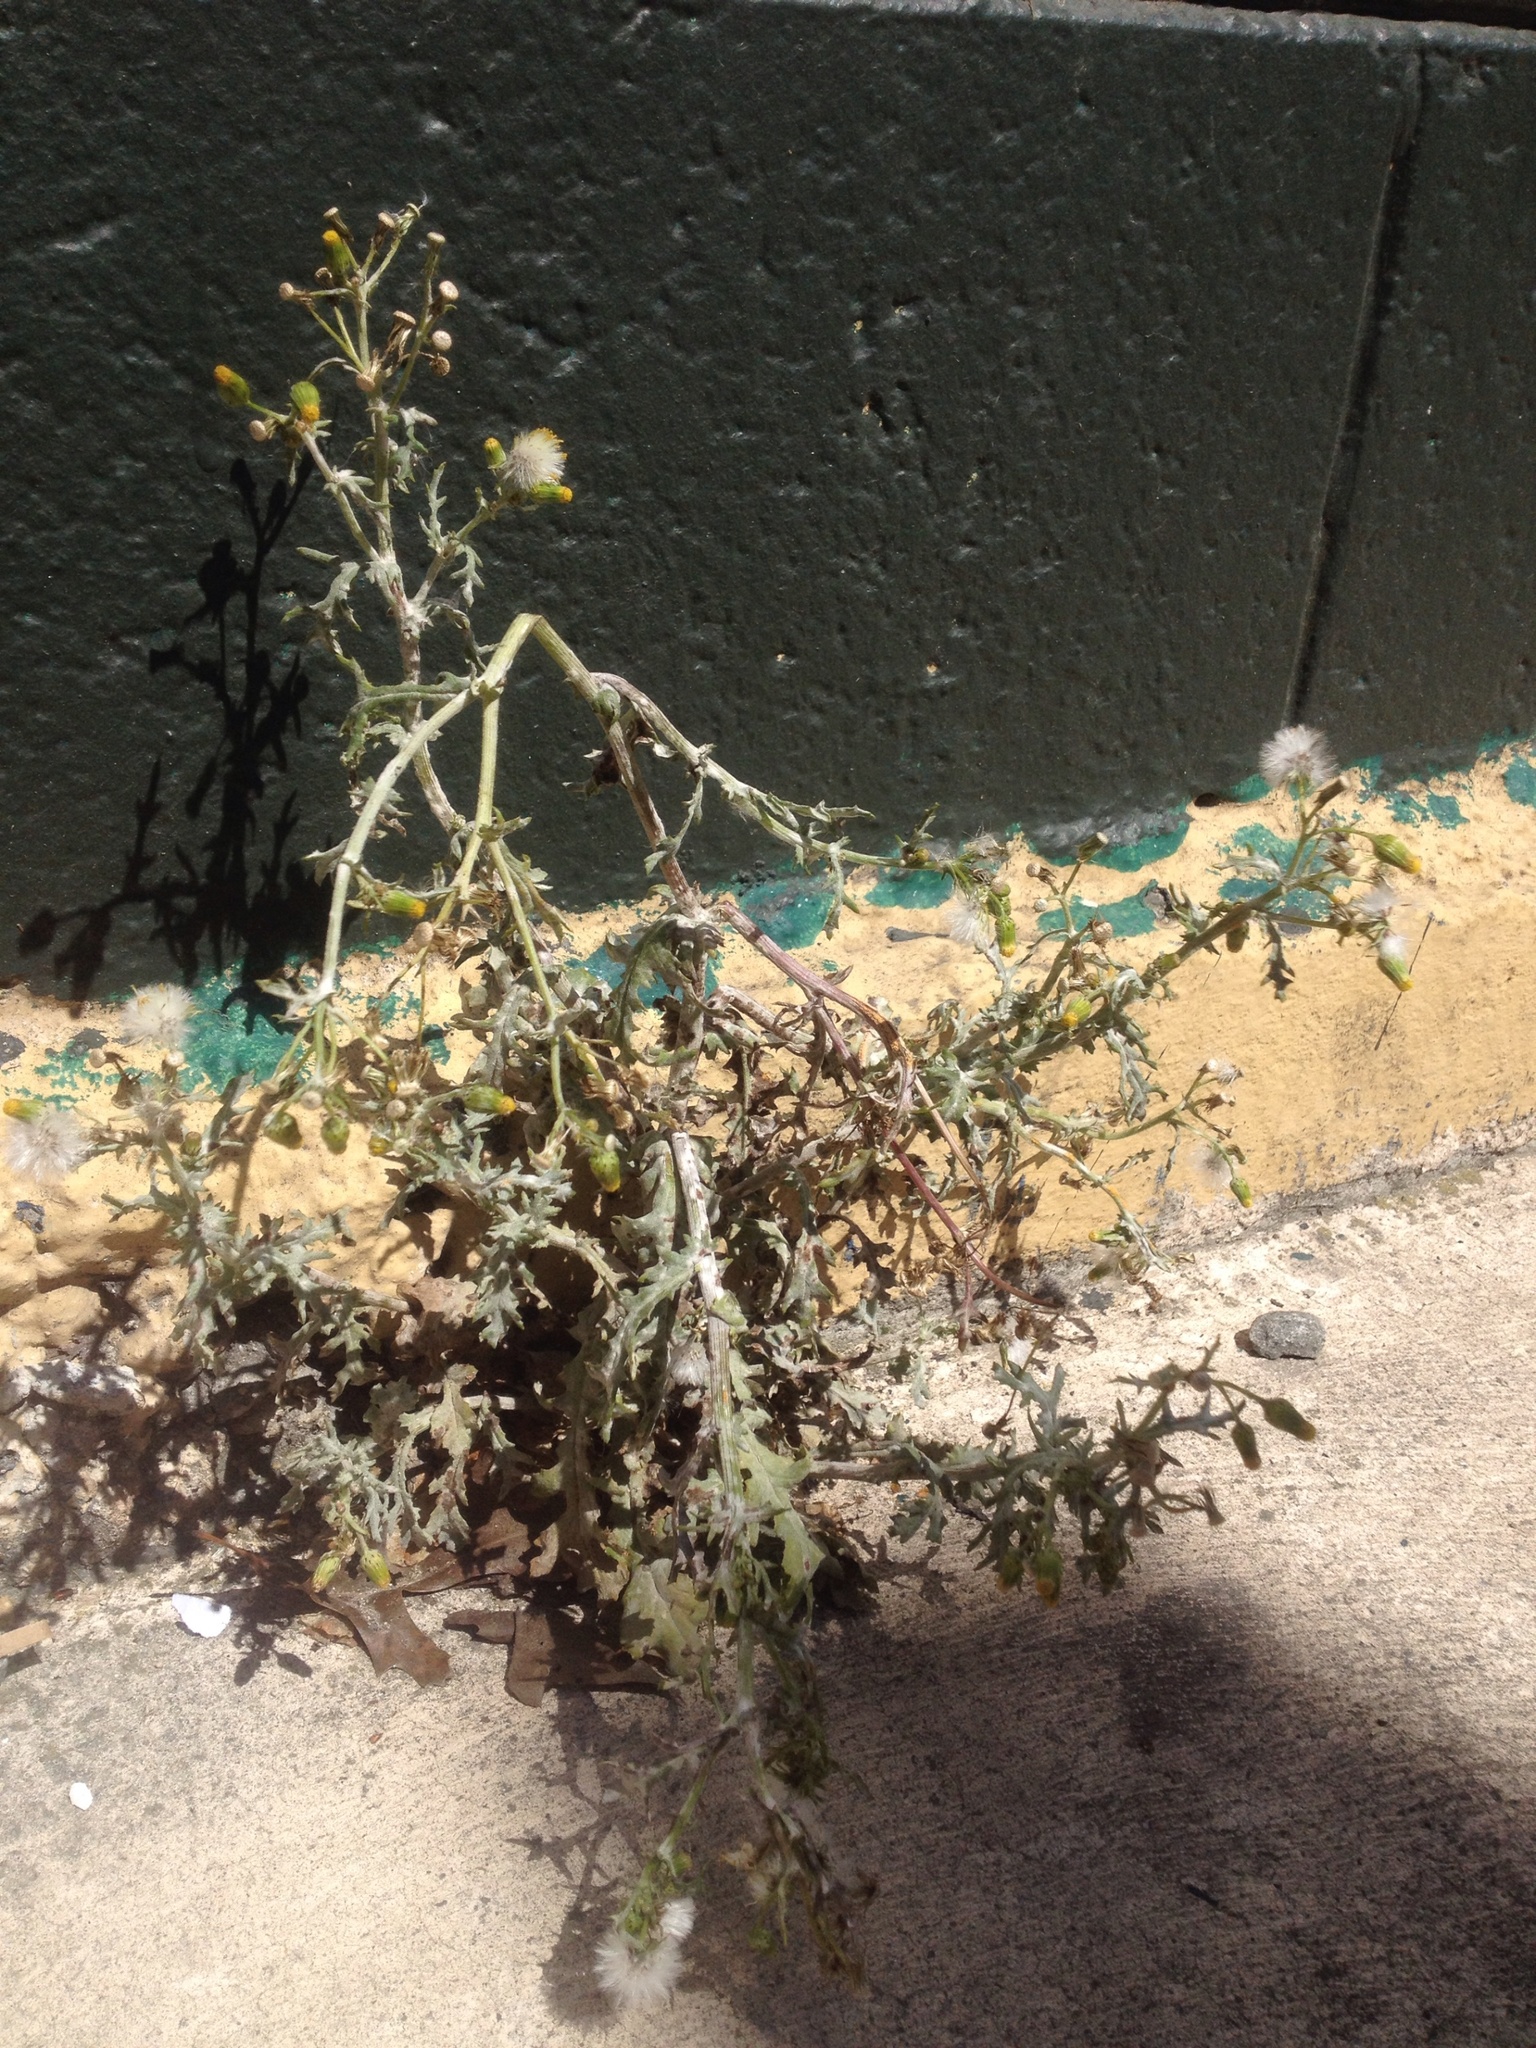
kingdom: Plantae
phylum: Tracheophyta
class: Magnoliopsida
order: Asterales
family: Asteraceae
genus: Senecio
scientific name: Senecio vulgaris
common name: Old-man-in-the-spring
